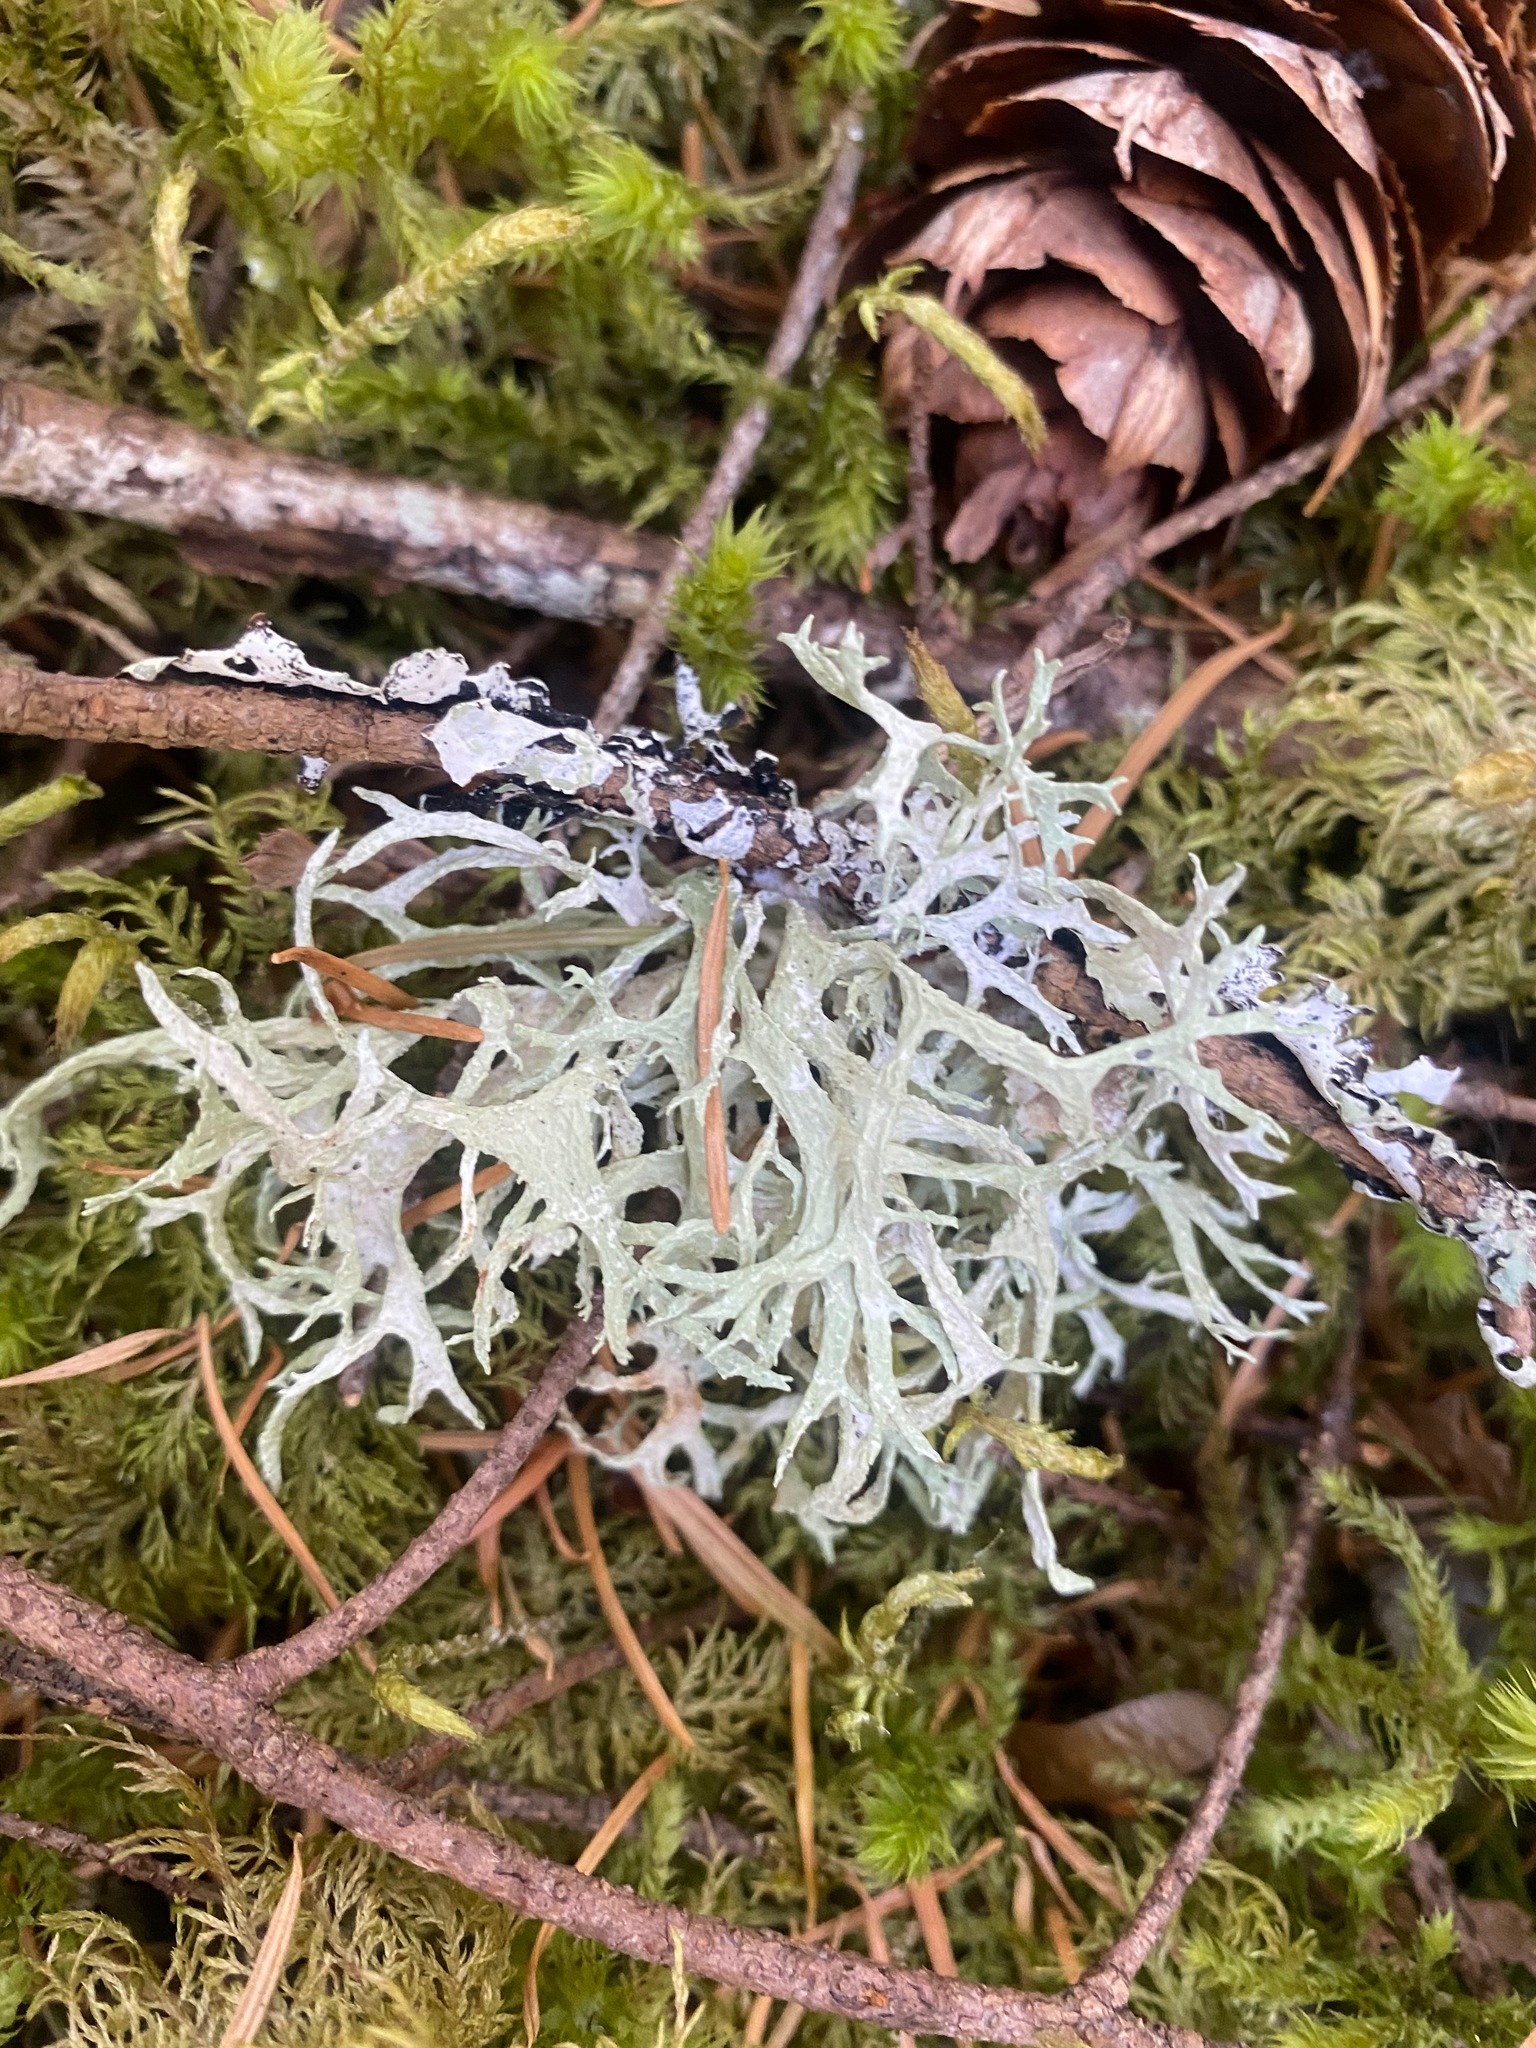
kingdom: Fungi
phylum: Ascomycota
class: Lecanoromycetes
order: Lecanorales
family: Parmeliaceae
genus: Evernia
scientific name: Evernia prunastri
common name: Oak moss
